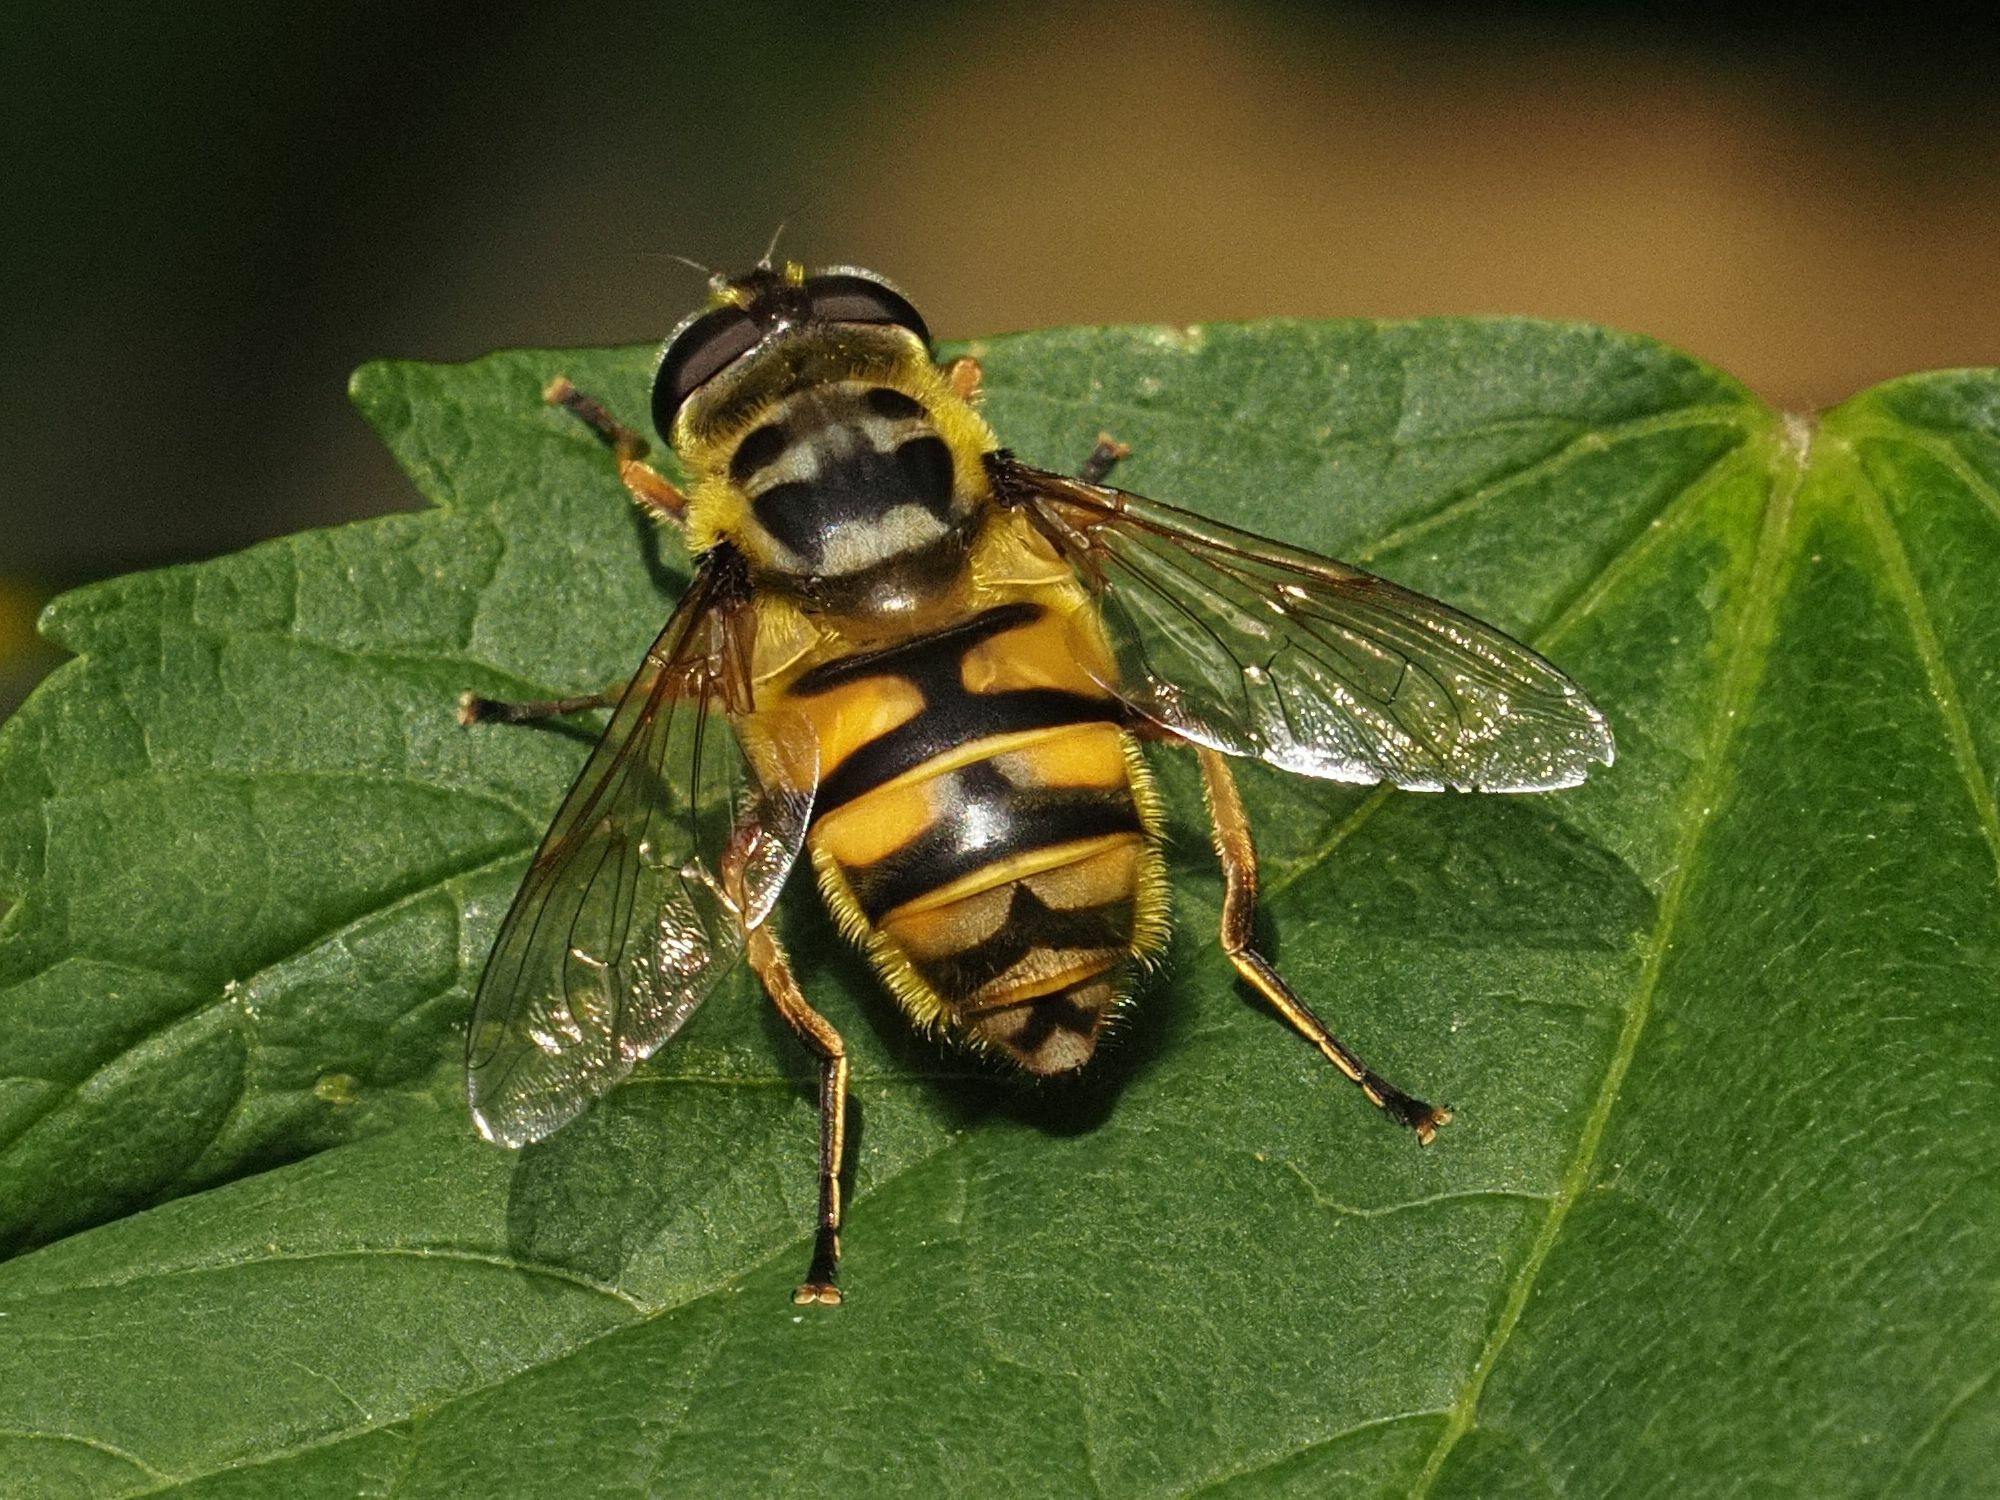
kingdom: Animalia
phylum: Arthropoda
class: Insecta
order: Diptera
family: Syrphidae
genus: Myathropa
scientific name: Myathropa florea
